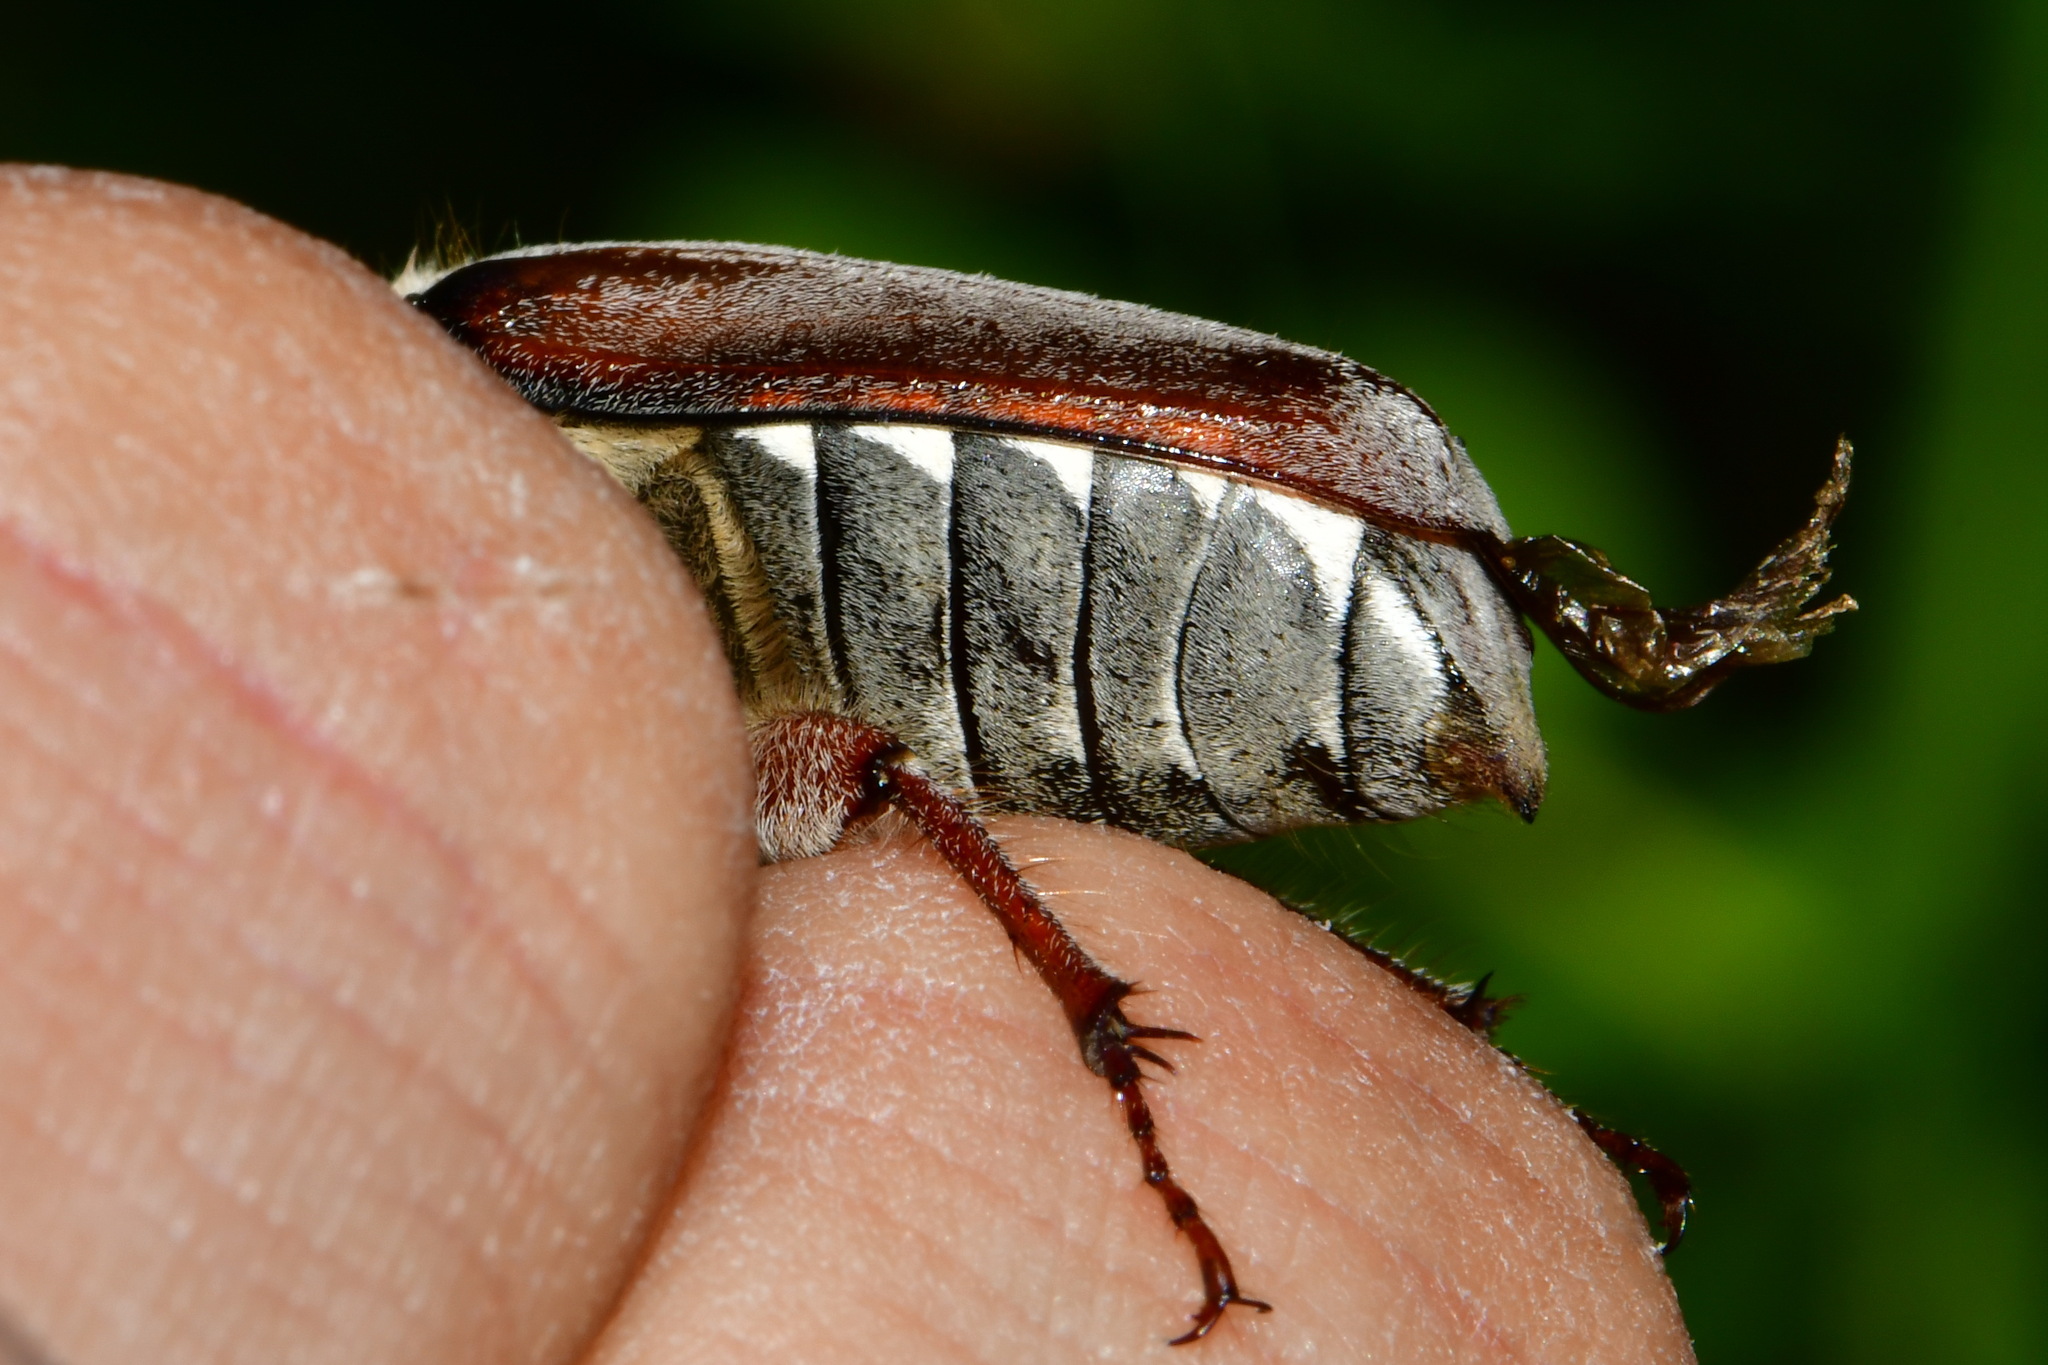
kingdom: Animalia
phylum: Arthropoda
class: Insecta
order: Coleoptera
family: Scarabaeidae
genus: Melolontha
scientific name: Melolontha hippocastani
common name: Chestnut cockchafer
